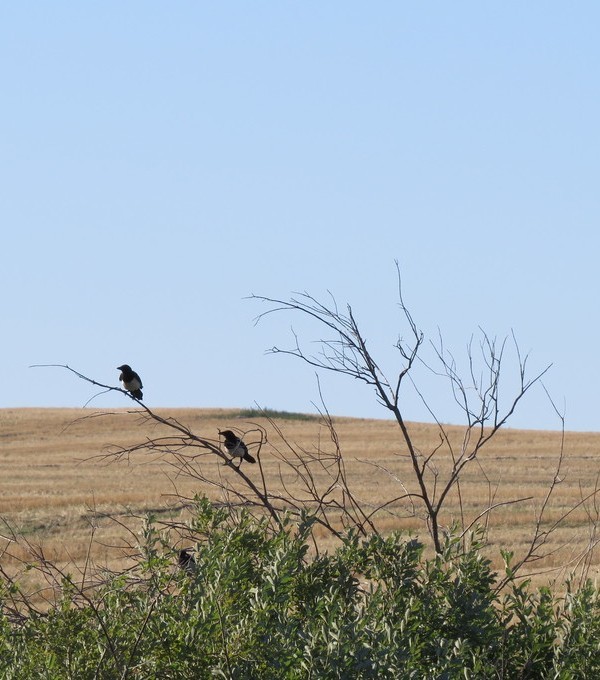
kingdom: Animalia
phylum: Chordata
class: Aves
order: Passeriformes
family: Corvidae
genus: Pica
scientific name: Pica pica
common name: Eurasian magpie
